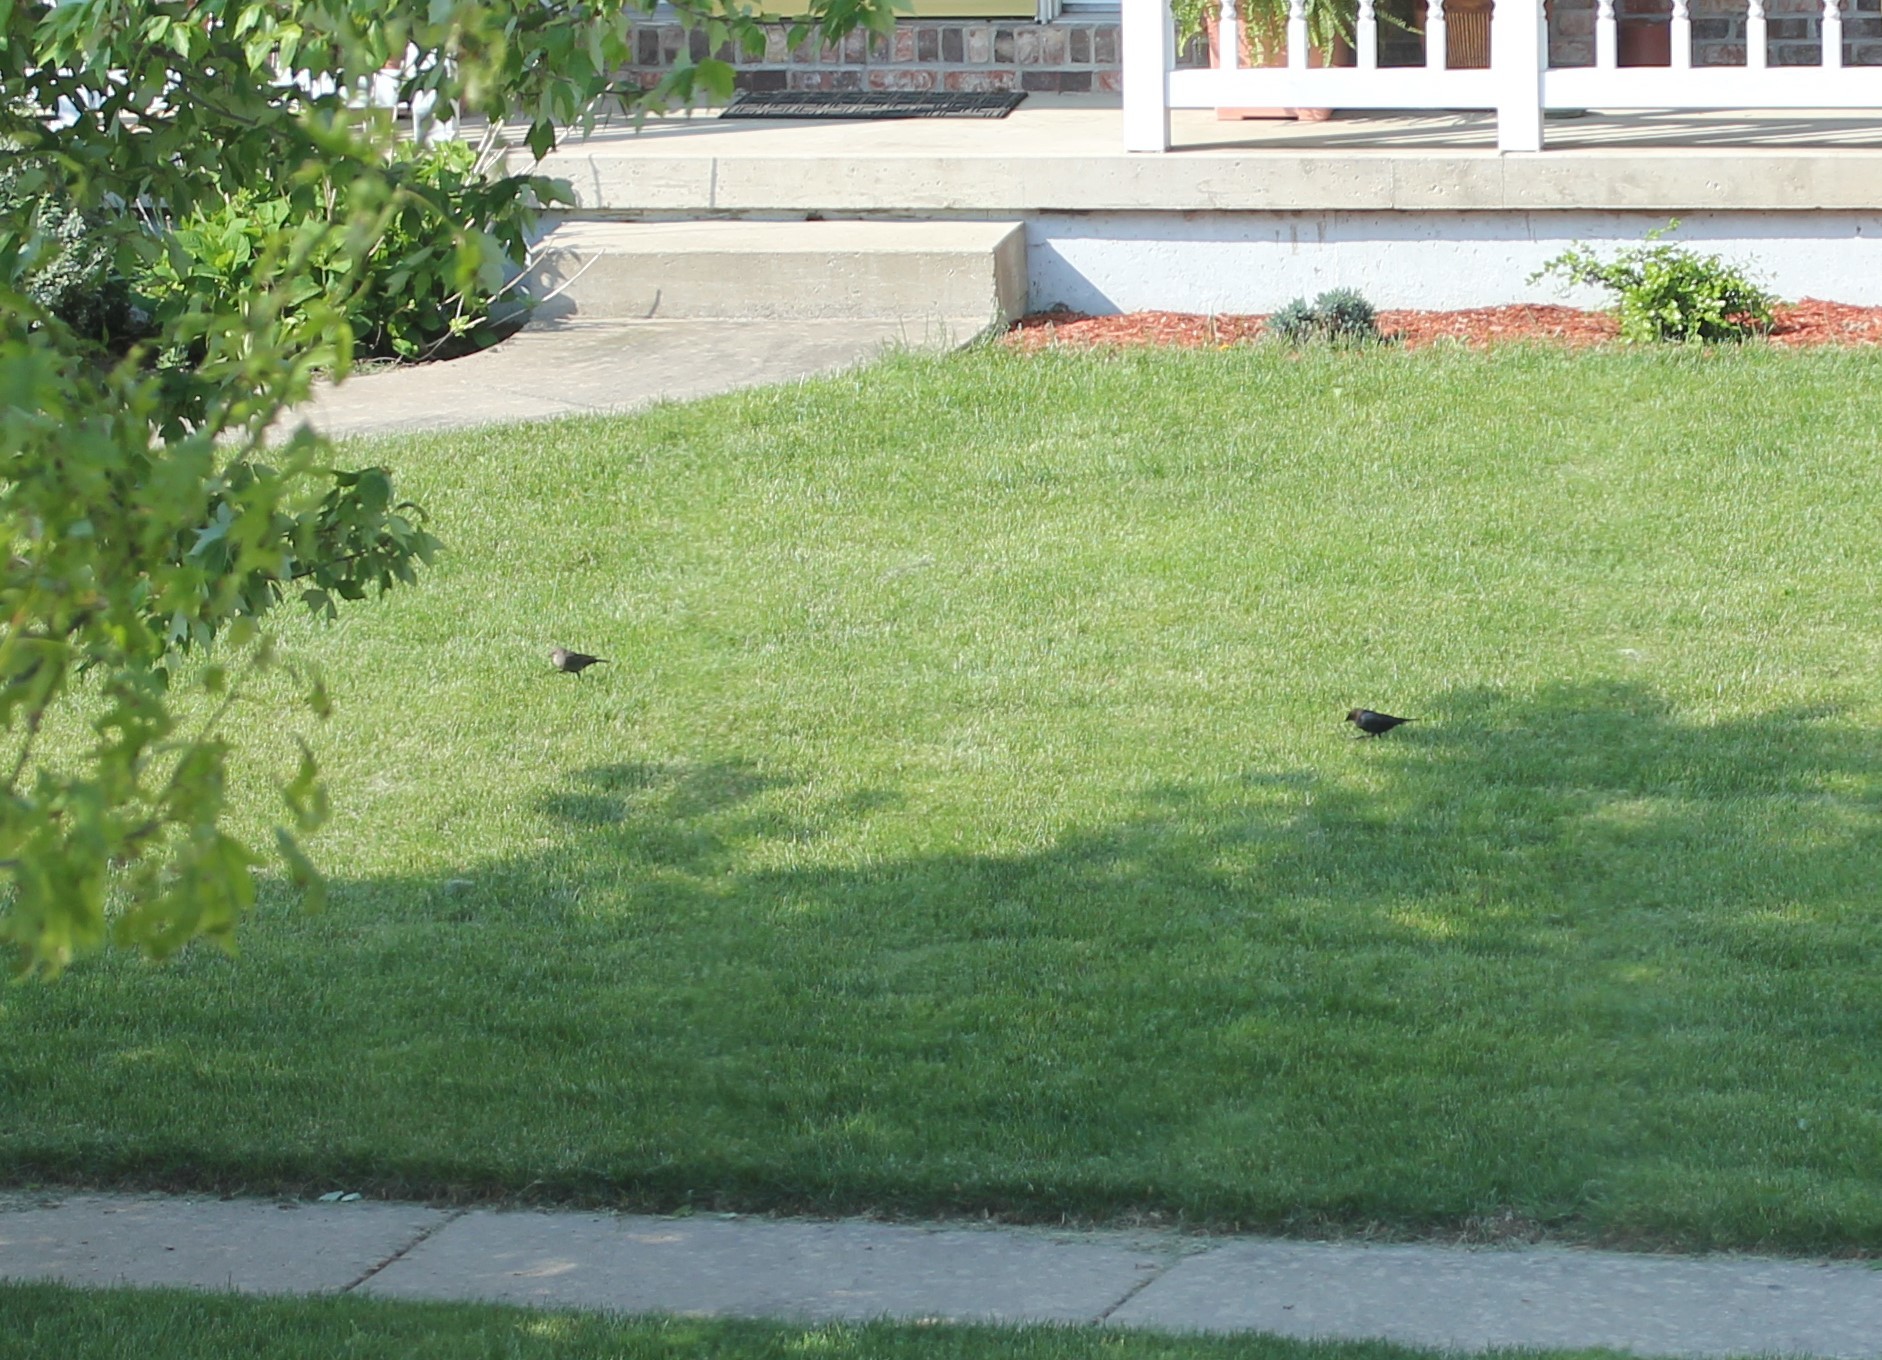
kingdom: Animalia
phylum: Chordata
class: Aves
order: Passeriformes
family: Icteridae
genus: Molothrus
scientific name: Molothrus ater
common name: Brown-headed cowbird
